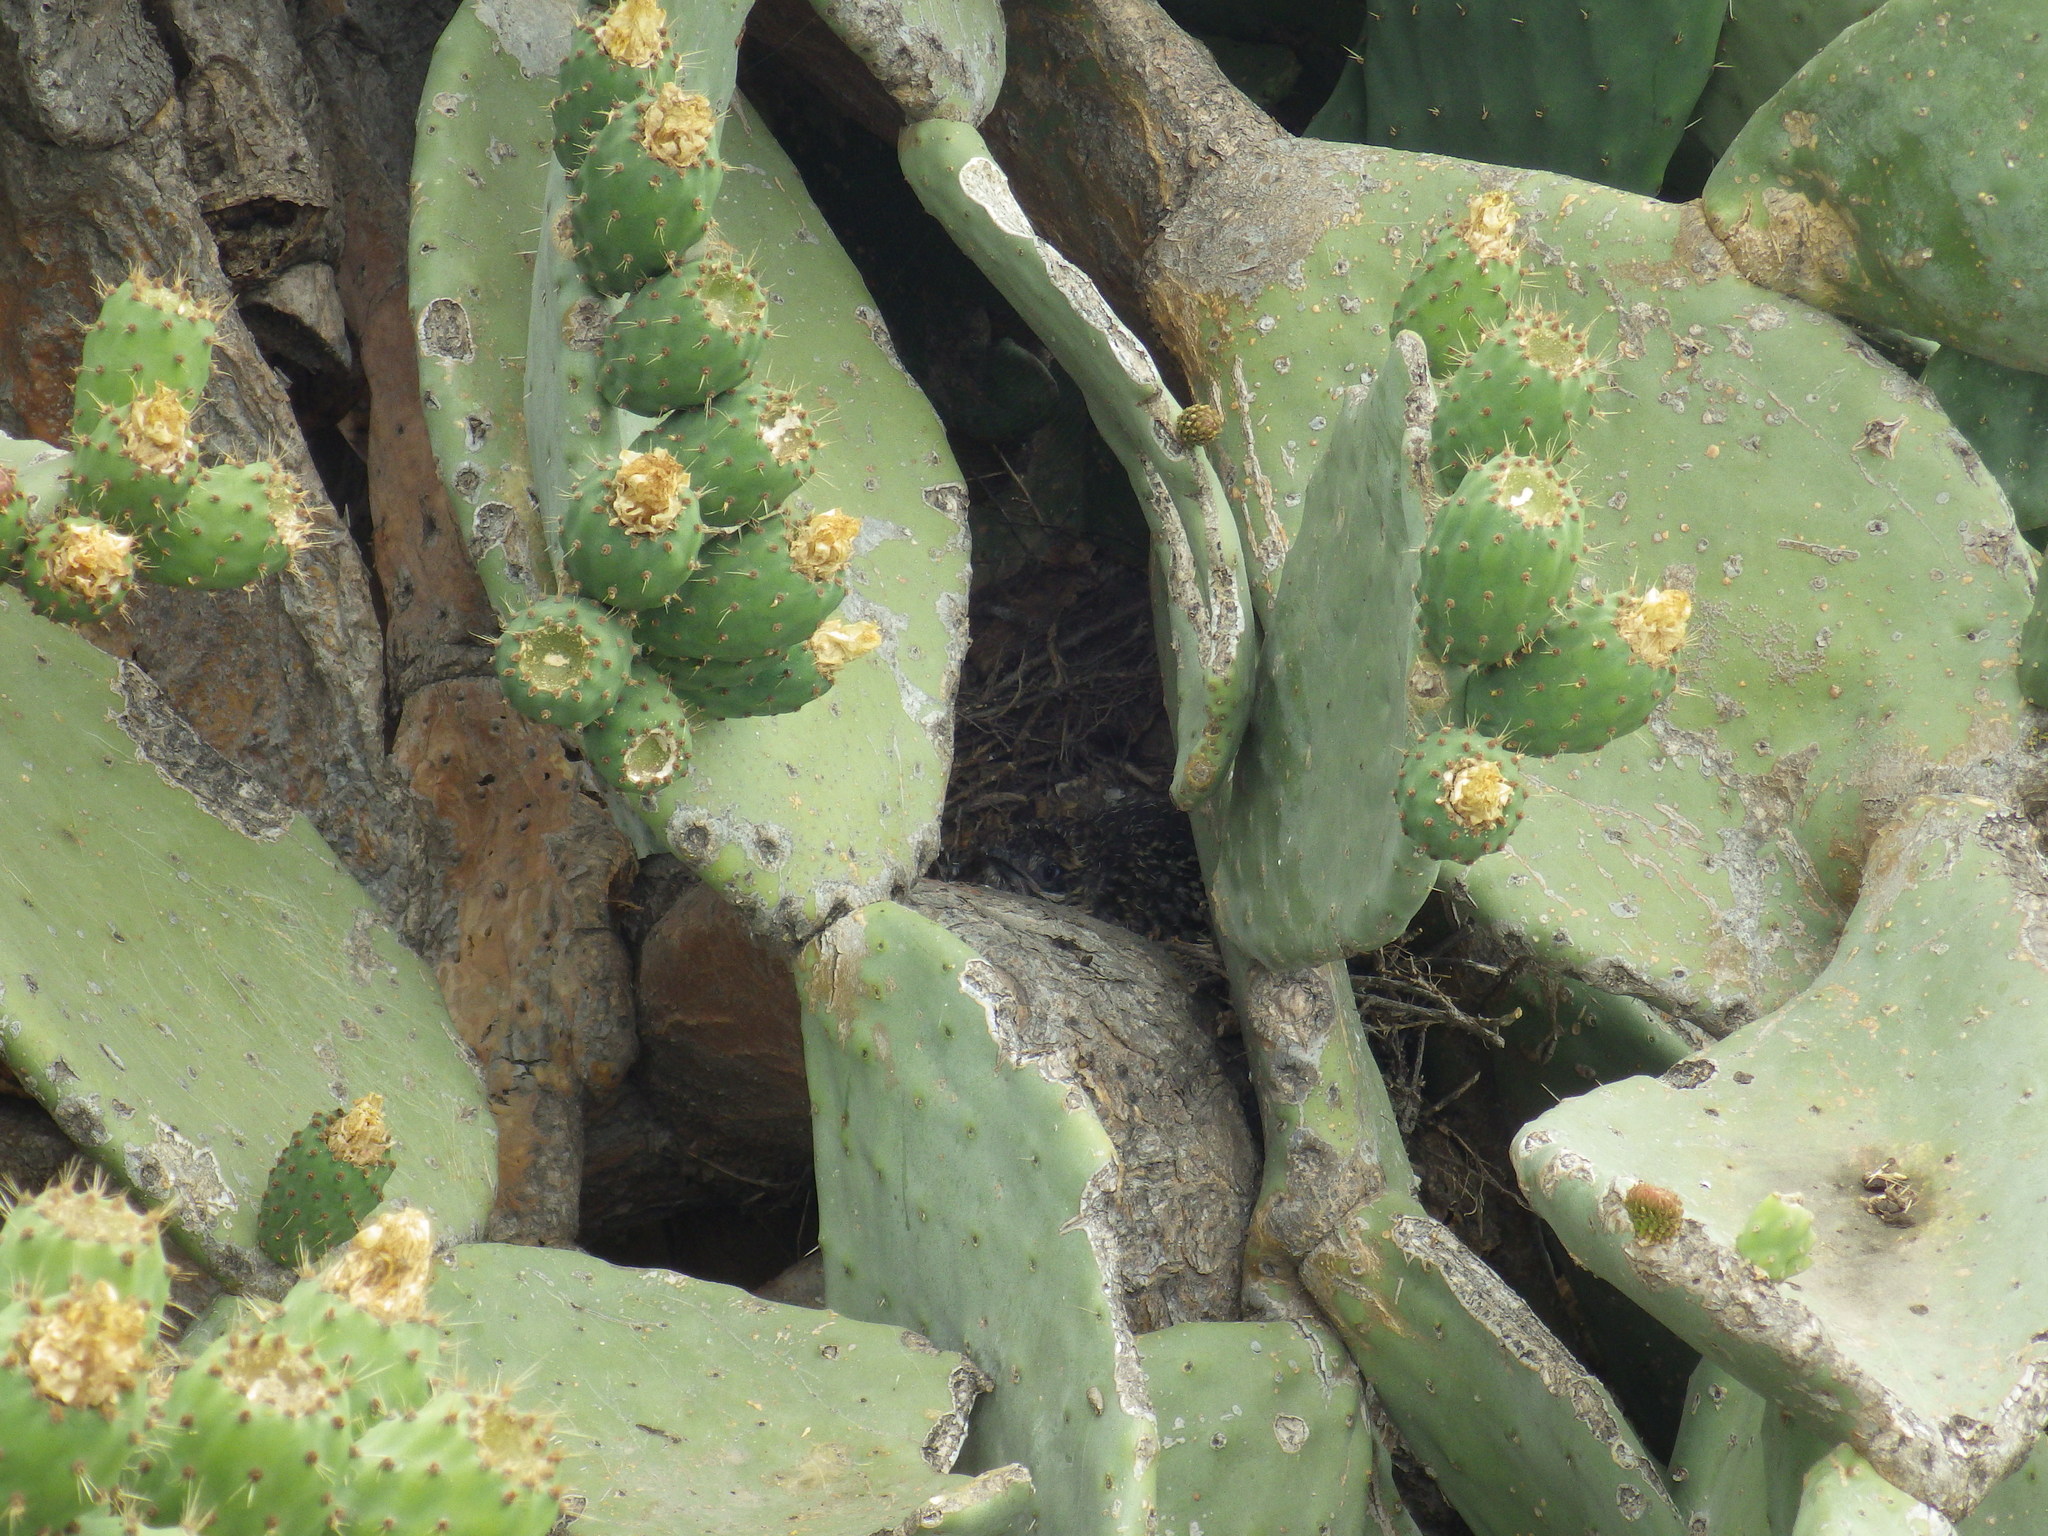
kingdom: Animalia
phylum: Chordata
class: Aves
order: Cuculiformes
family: Cuculidae
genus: Geococcyx
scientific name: Geococcyx californianus
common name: Greater roadrunner
